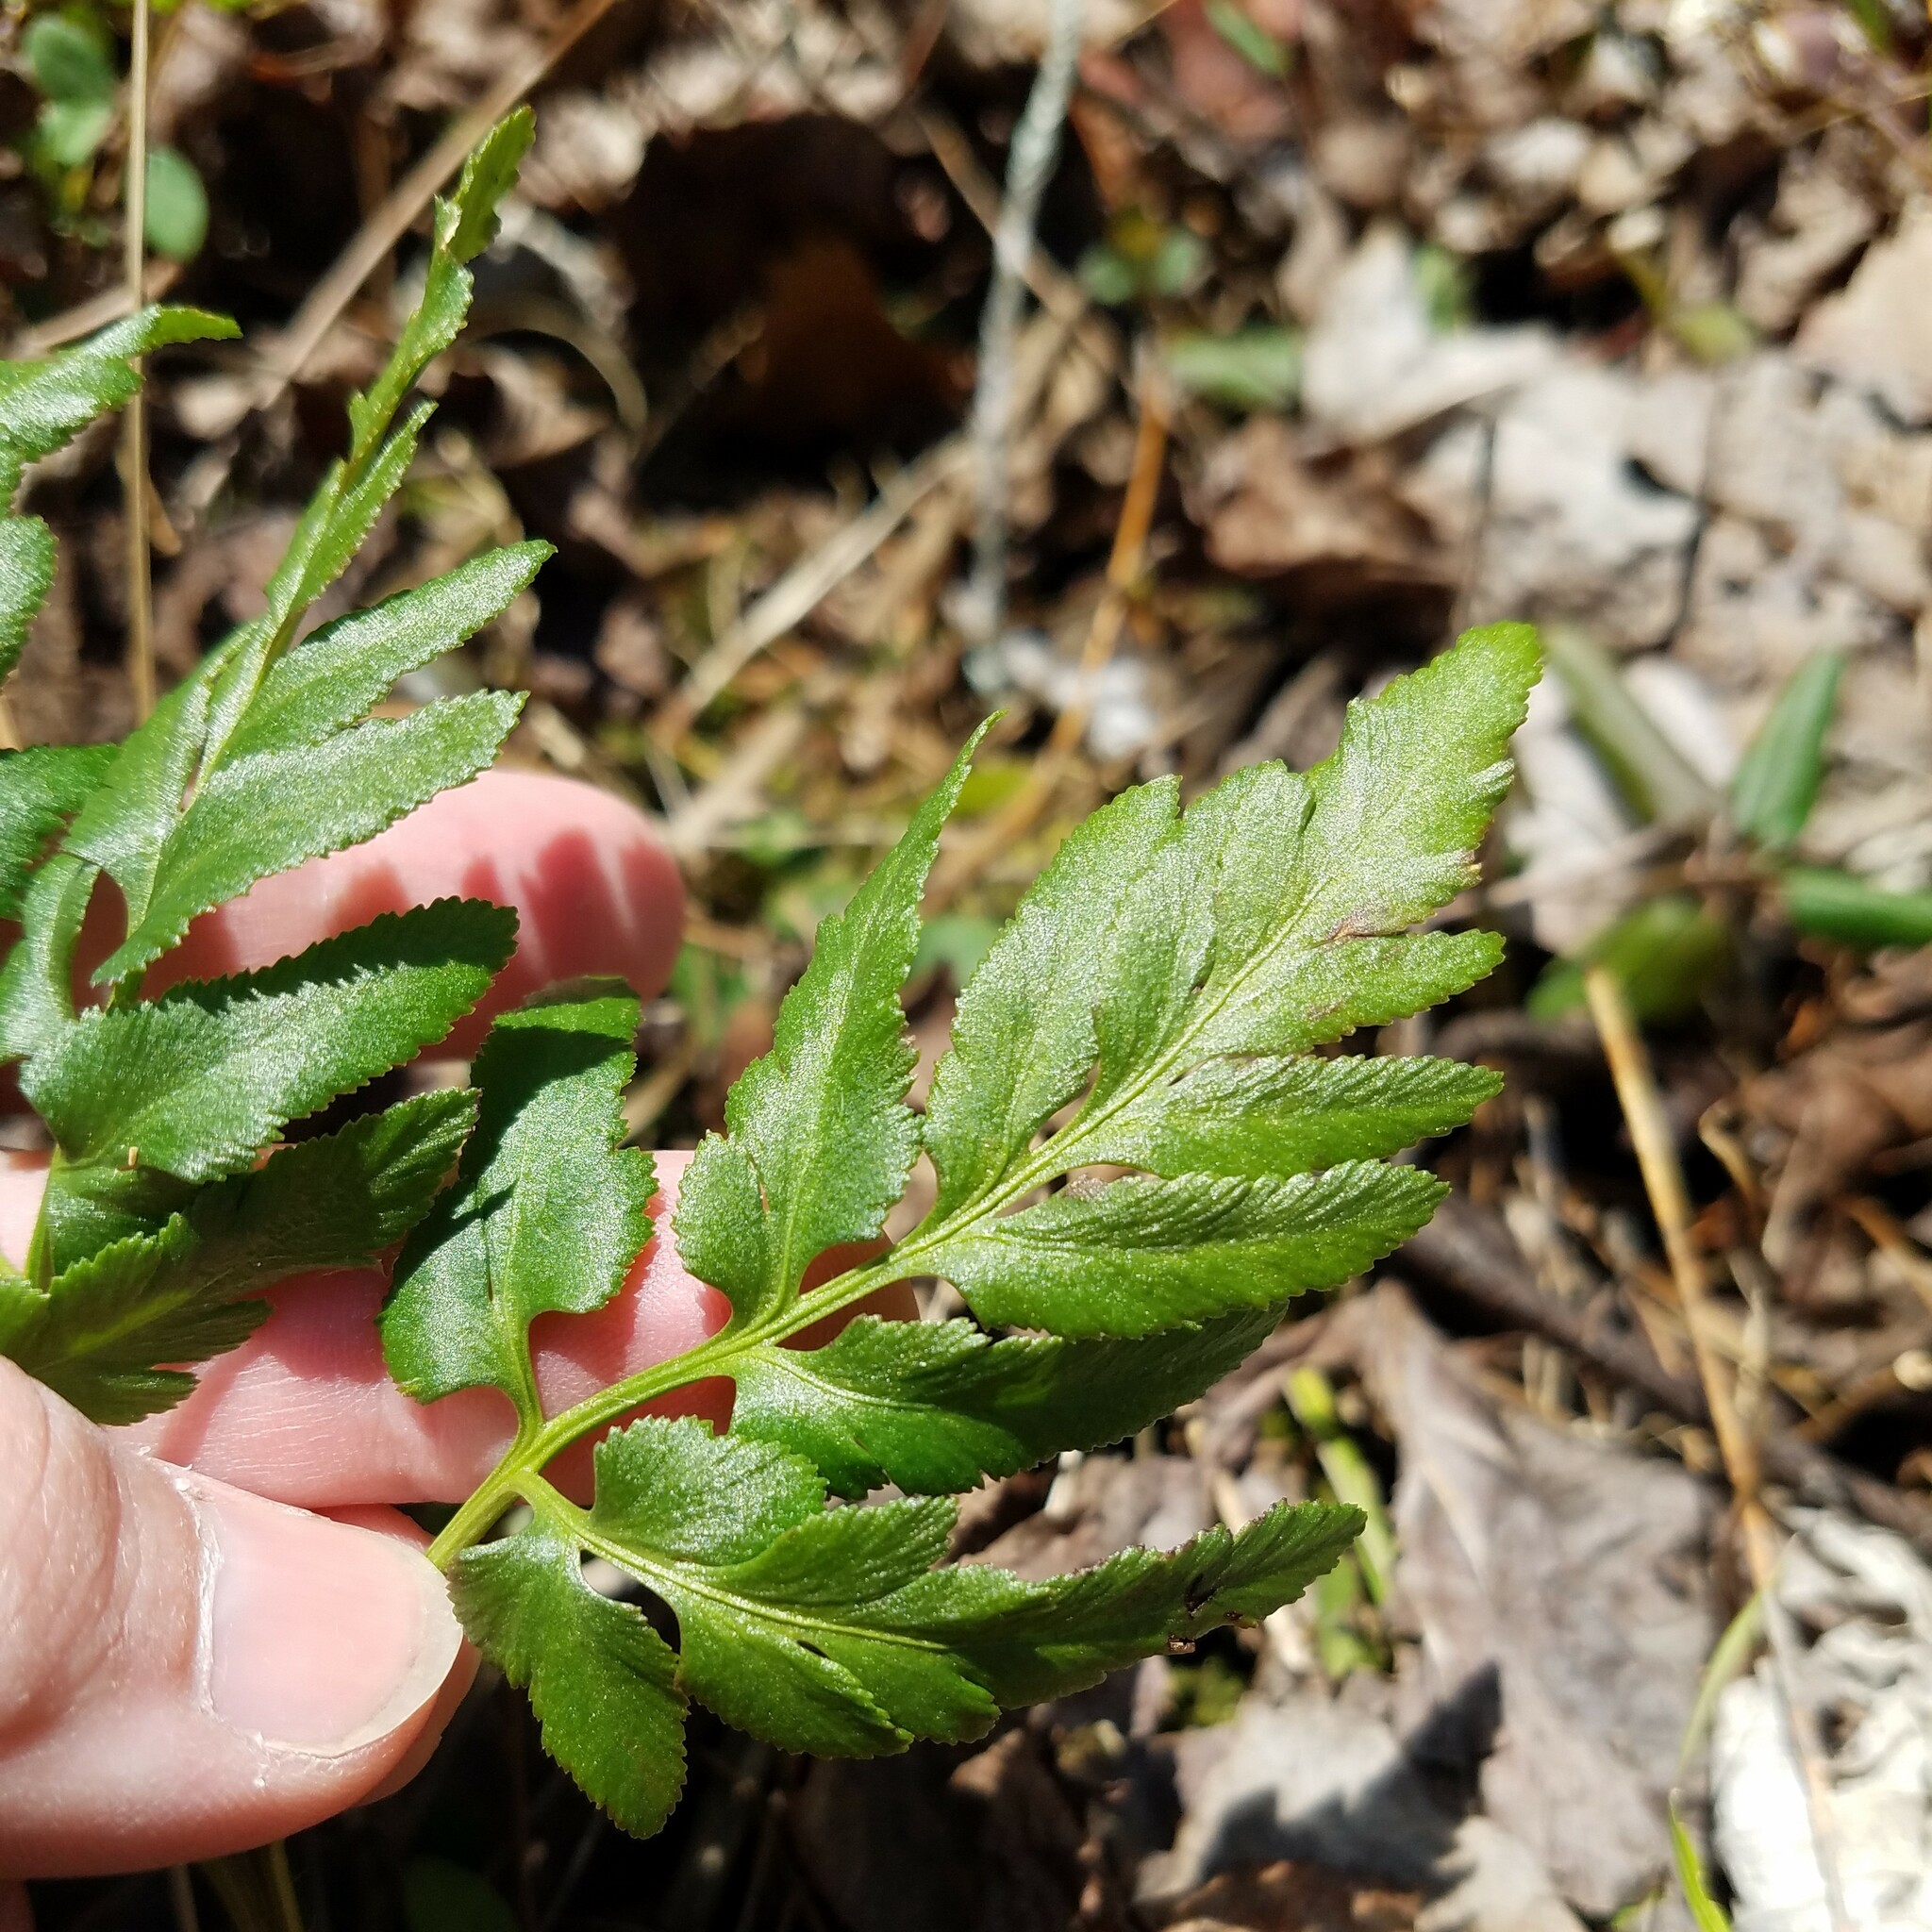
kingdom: Plantae
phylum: Tracheophyta
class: Polypodiopsida
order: Ophioglossales
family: Ophioglossaceae
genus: Sceptridium
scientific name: Sceptridium dissectum
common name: Cut-leaved grapefern
